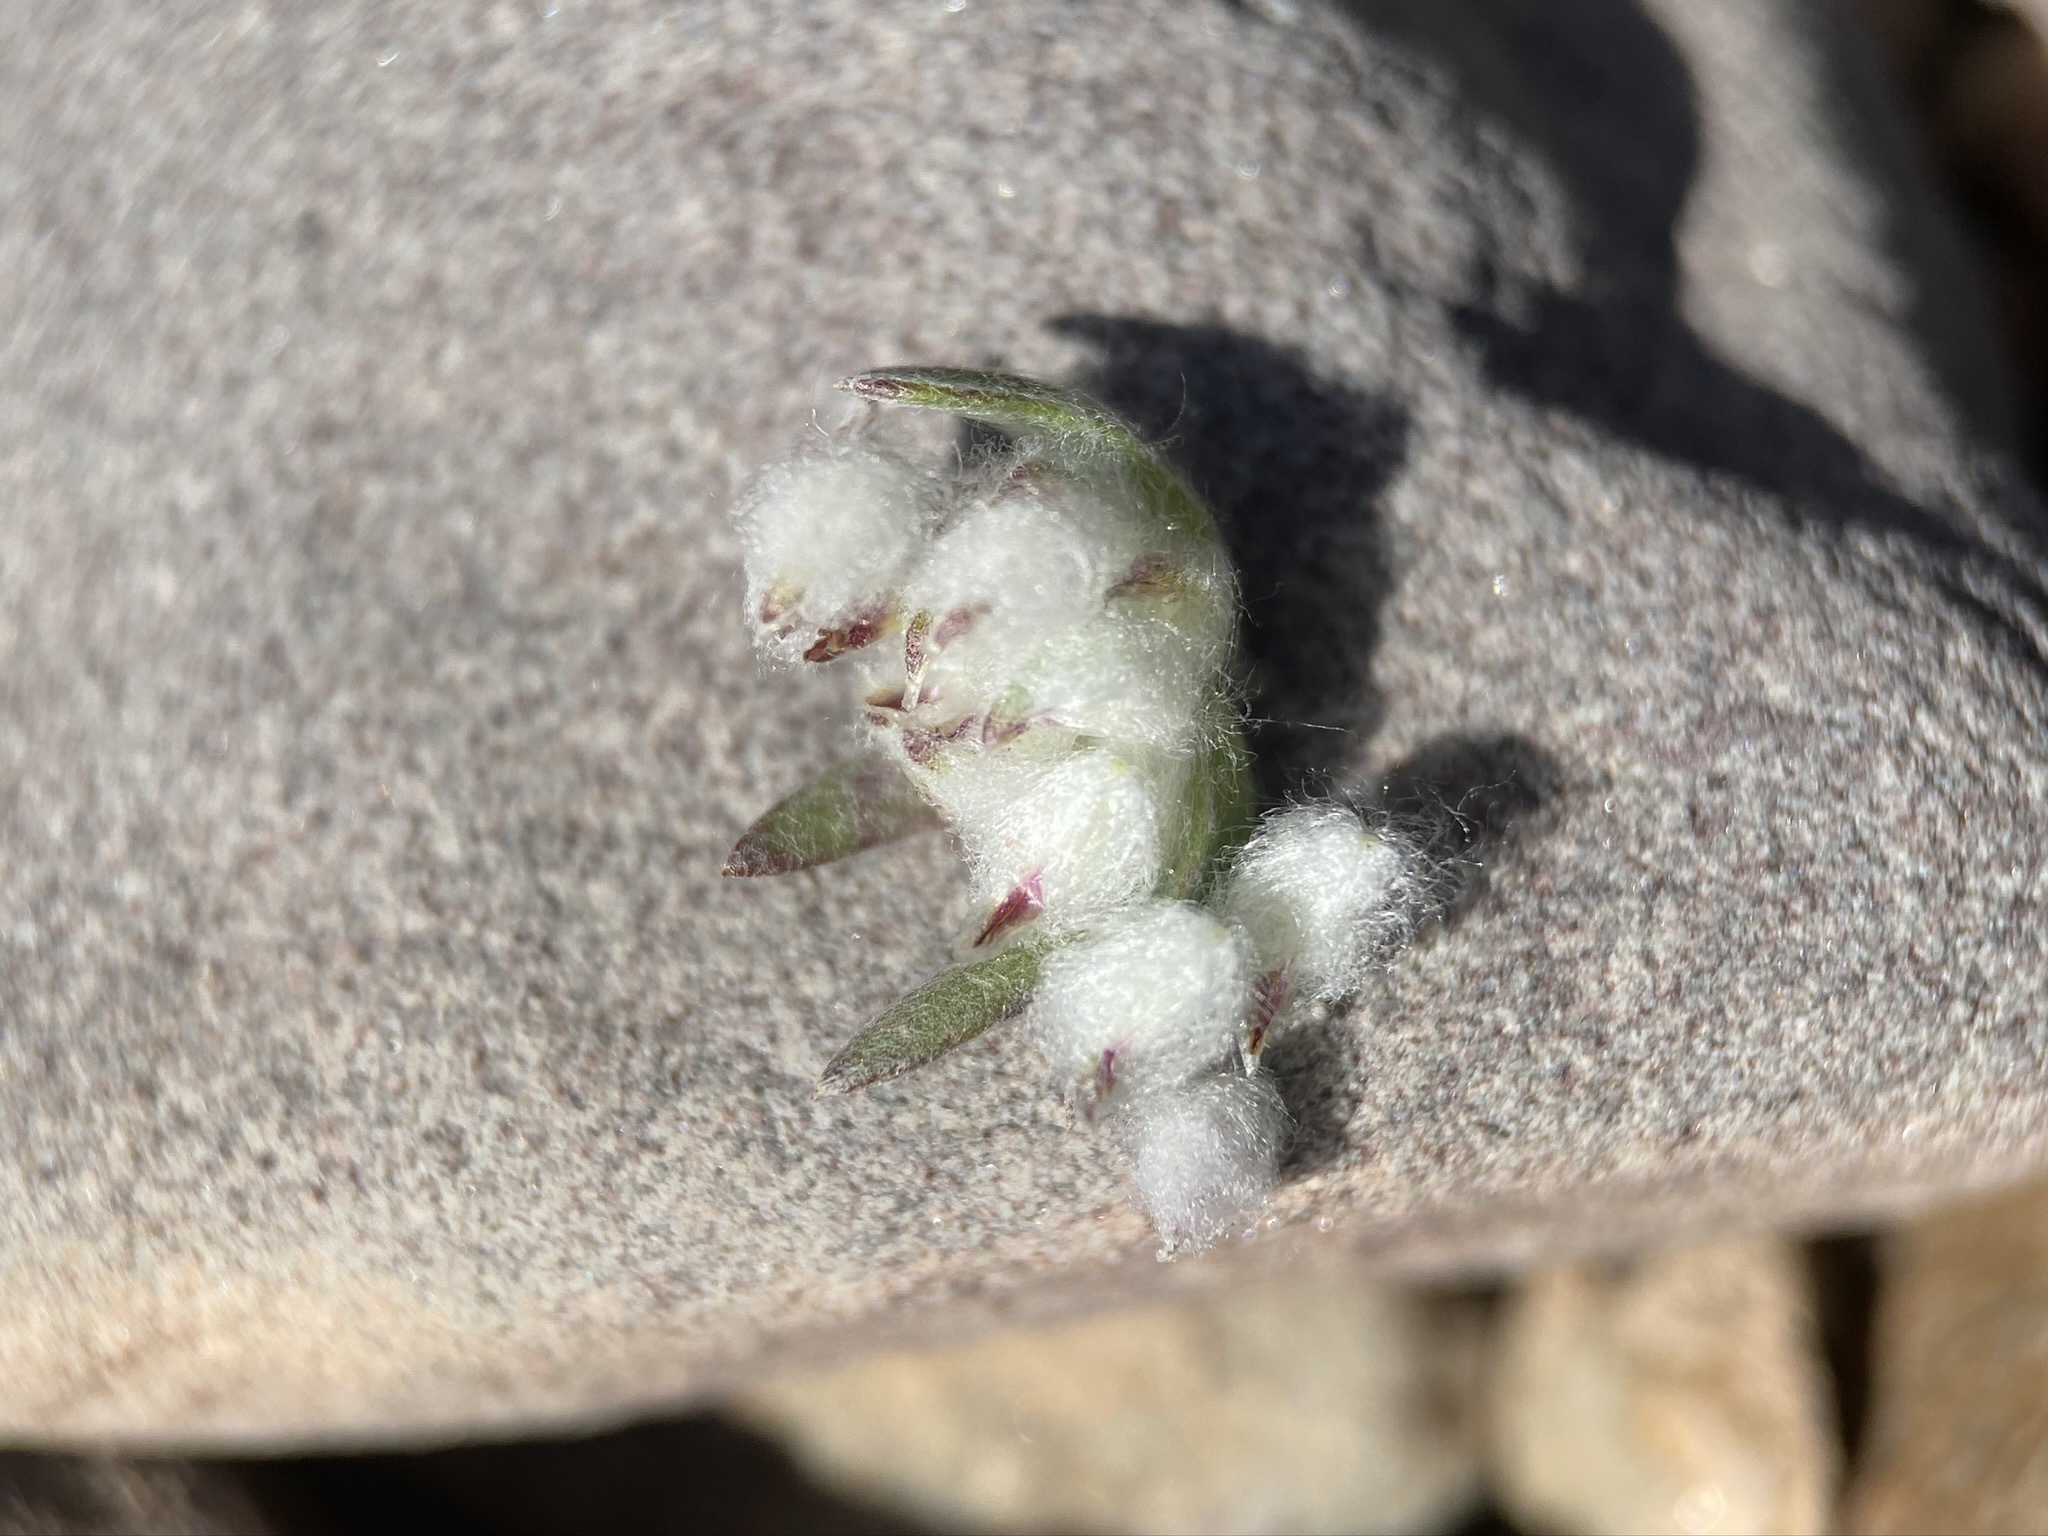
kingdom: Plantae
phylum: Tracheophyta
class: Magnoliopsida
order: Asterales
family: Asteraceae
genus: Stylocline
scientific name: Stylocline micropoides
